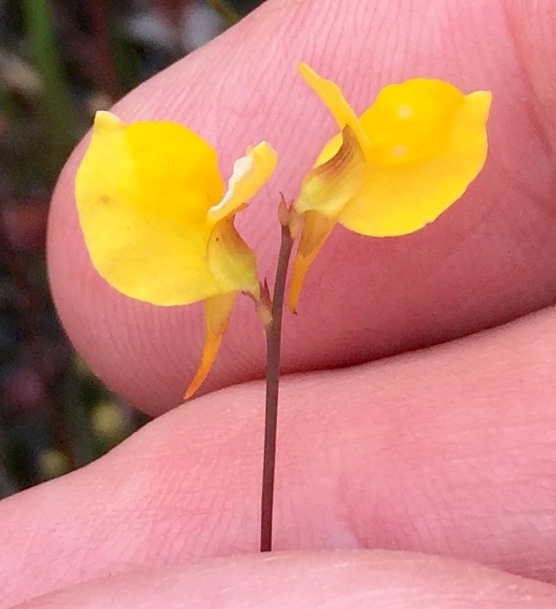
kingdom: Plantae
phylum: Tracheophyta
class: Magnoliopsida
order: Lamiales
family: Lentibulariaceae
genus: Utricularia
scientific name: Utricularia cornuta
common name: Horned bladderwort
